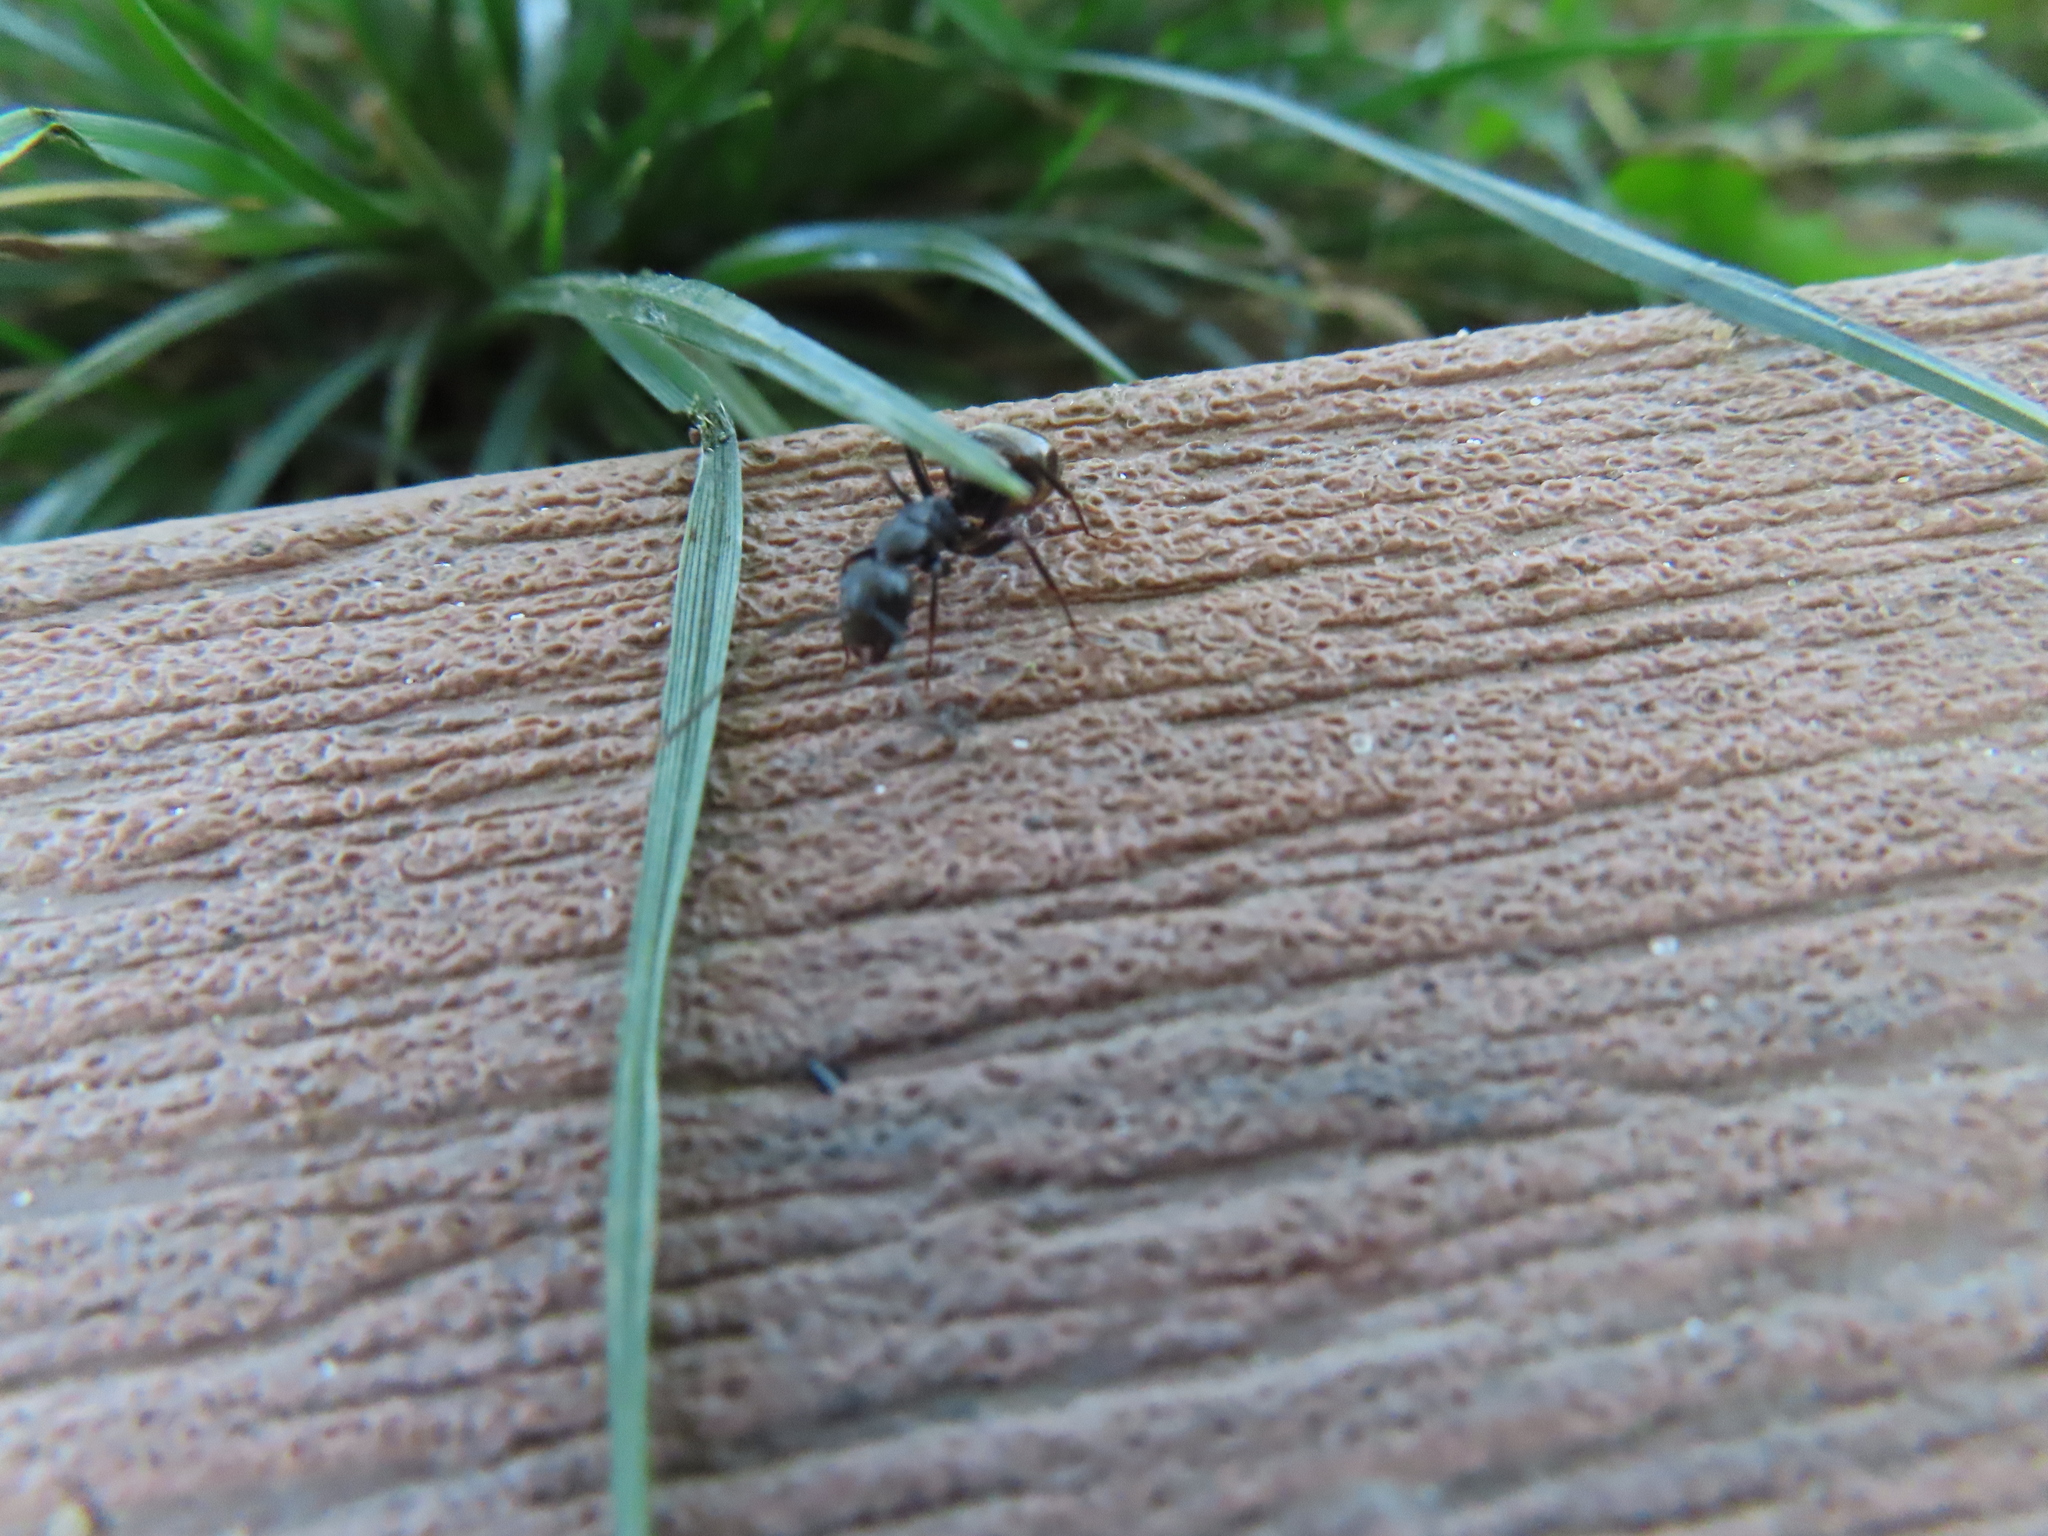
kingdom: Animalia
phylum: Arthropoda
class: Insecta
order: Hymenoptera
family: Formicidae
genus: Camponotus
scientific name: Camponotus pennsylvanicus
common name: Black carpenter ant
